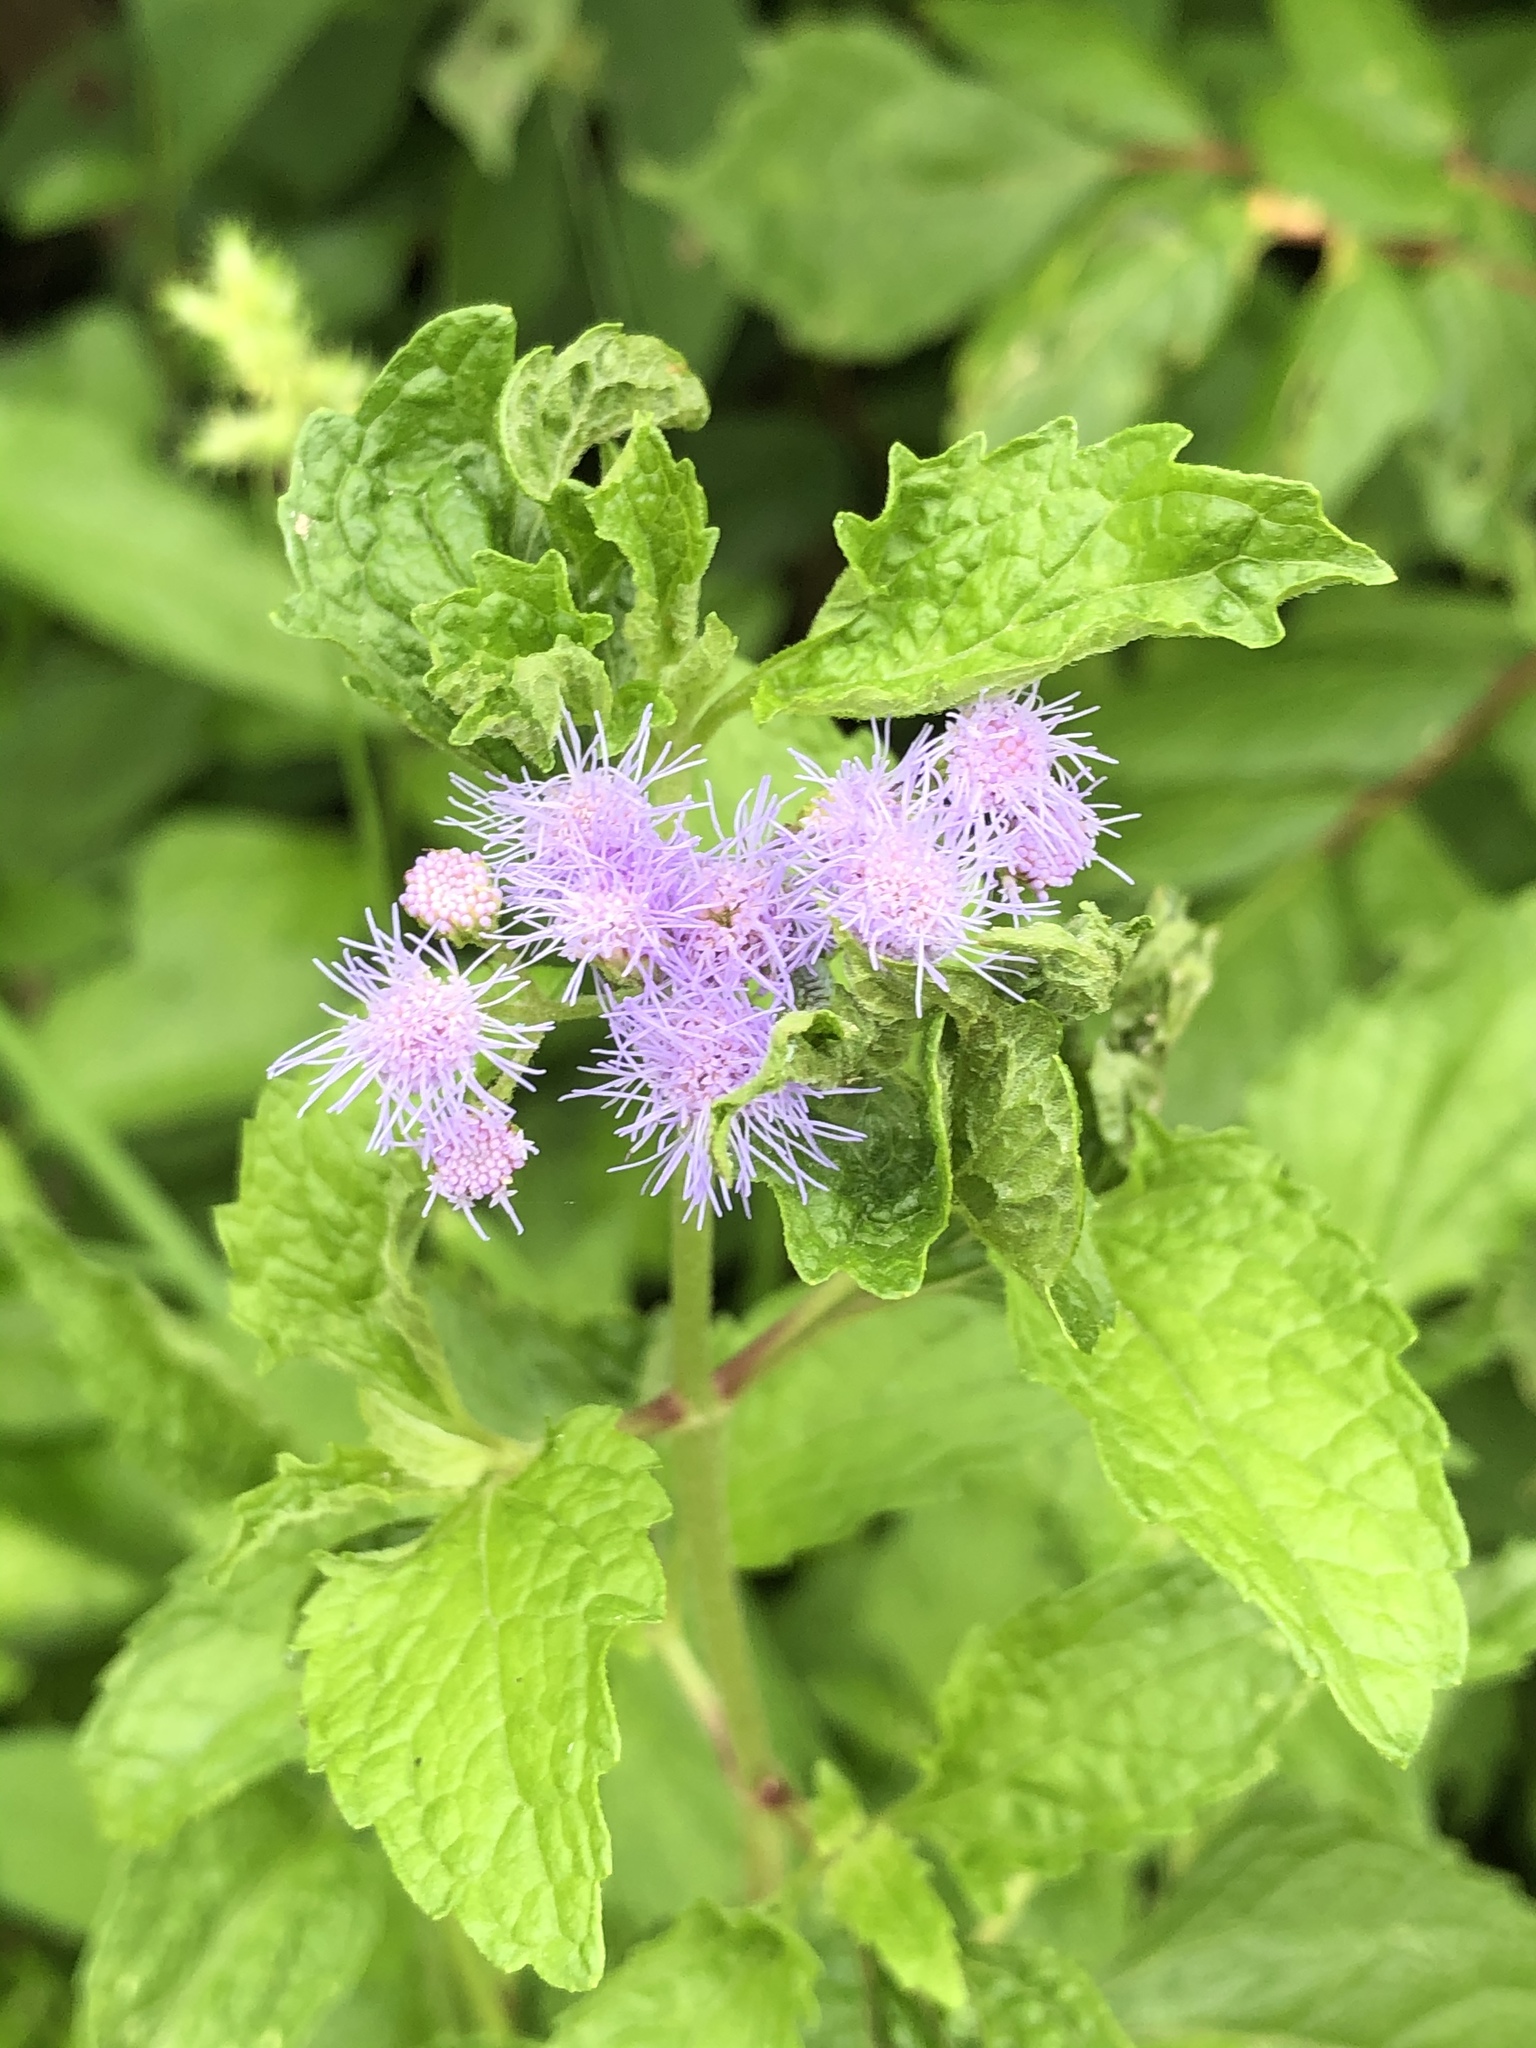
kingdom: Plantae
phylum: Tracheophyta
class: Magnoliopsida
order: Asterales
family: Asteraceae
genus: Conoclinium
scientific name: Conoclinium coelestinum
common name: Blue mistflower
